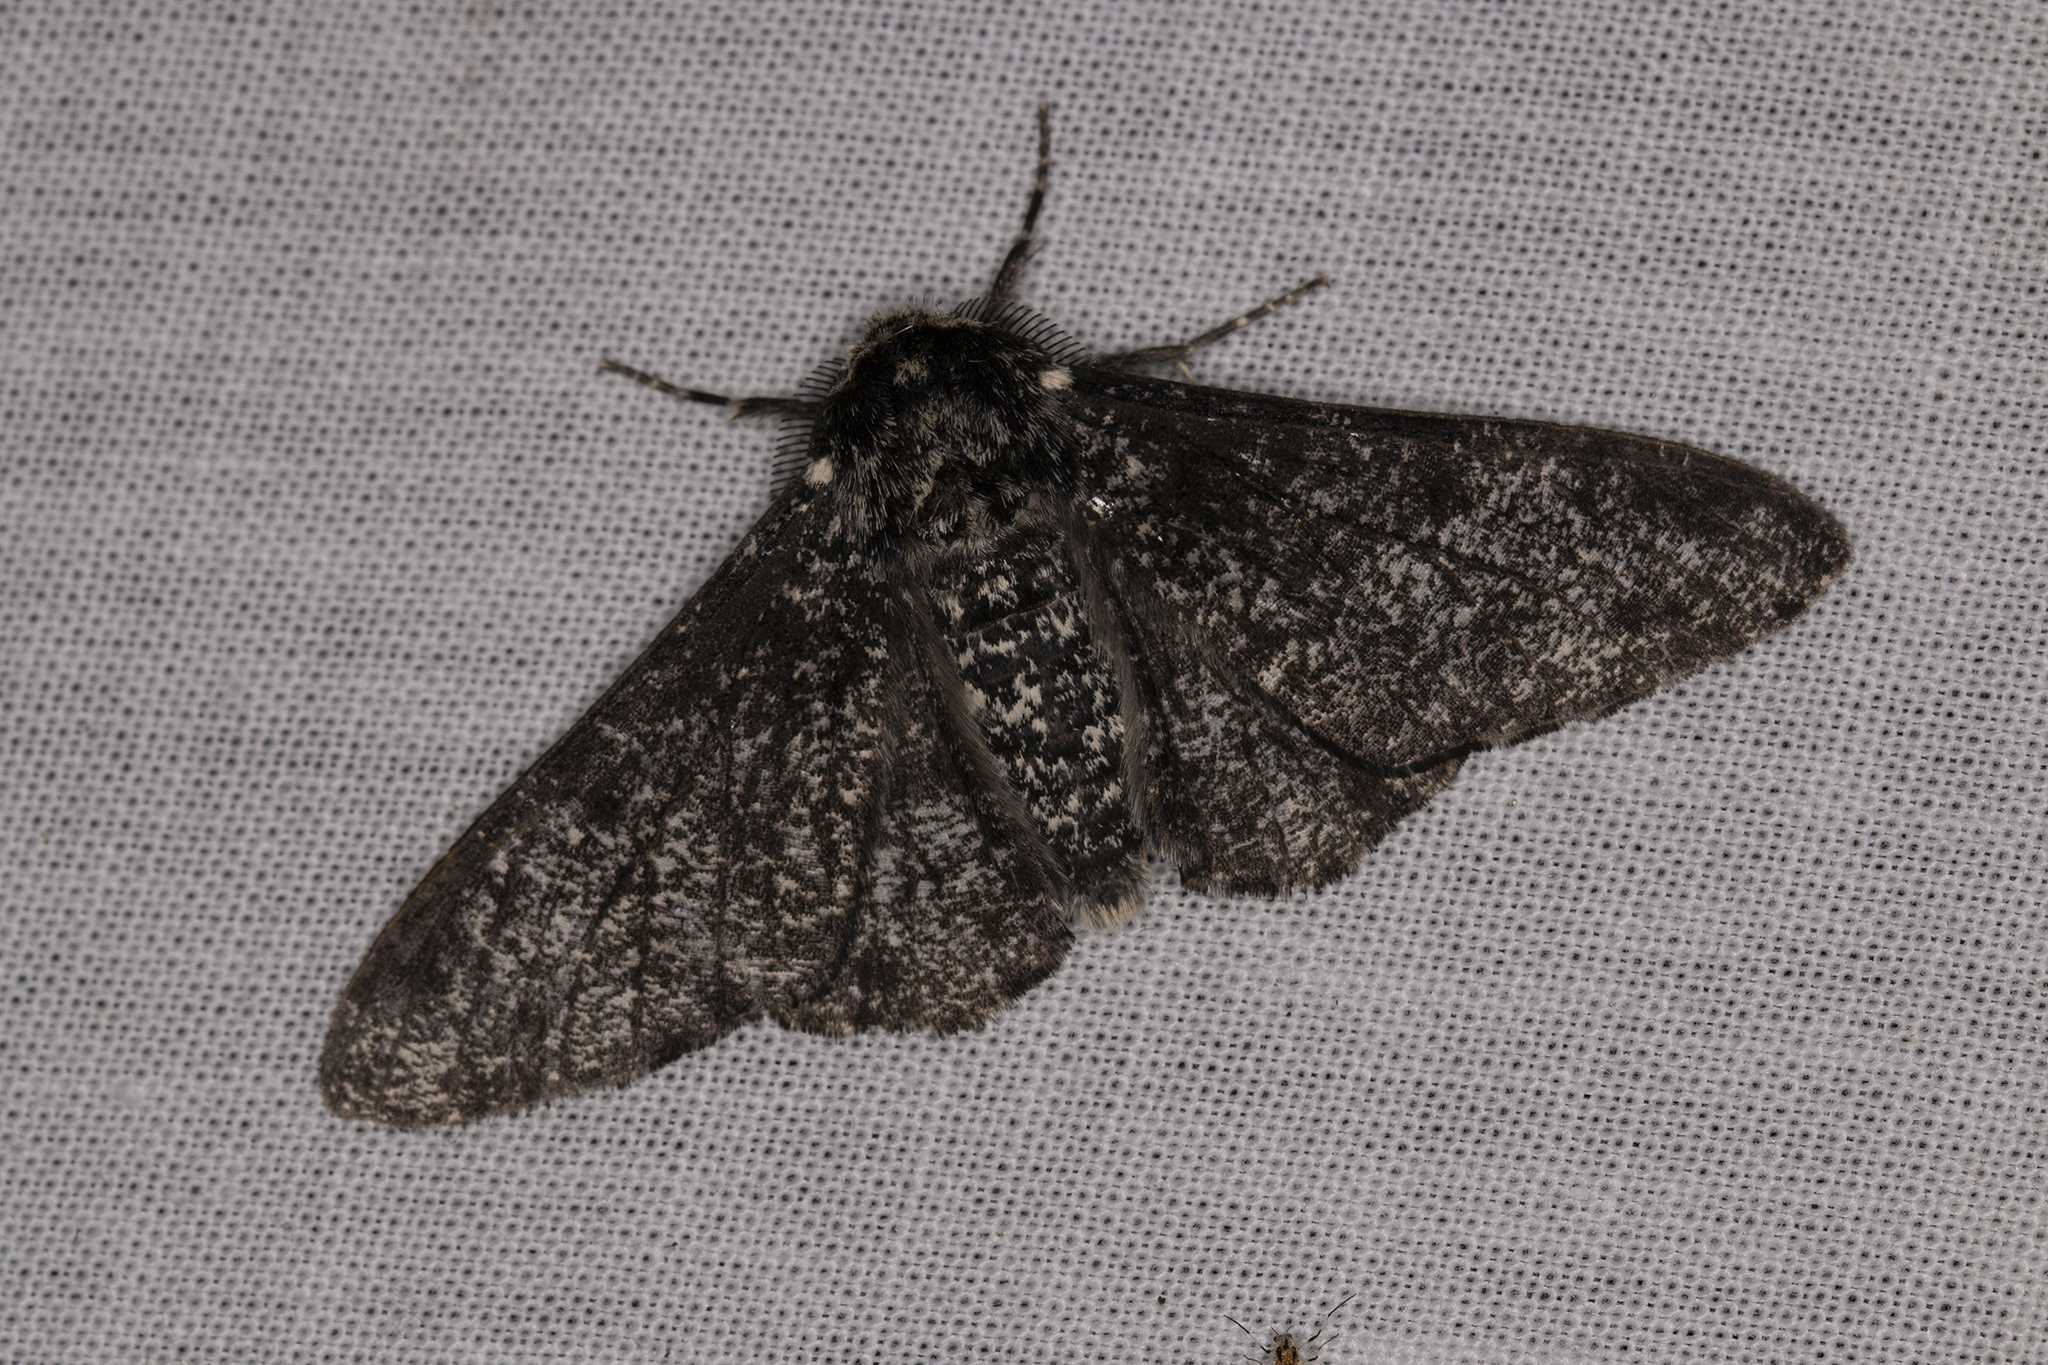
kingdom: Animalia
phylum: Arthropoda
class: Insecta
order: Lepidoptera
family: Geometridae
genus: Biston
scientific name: Biston betularia
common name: Peppered moth
